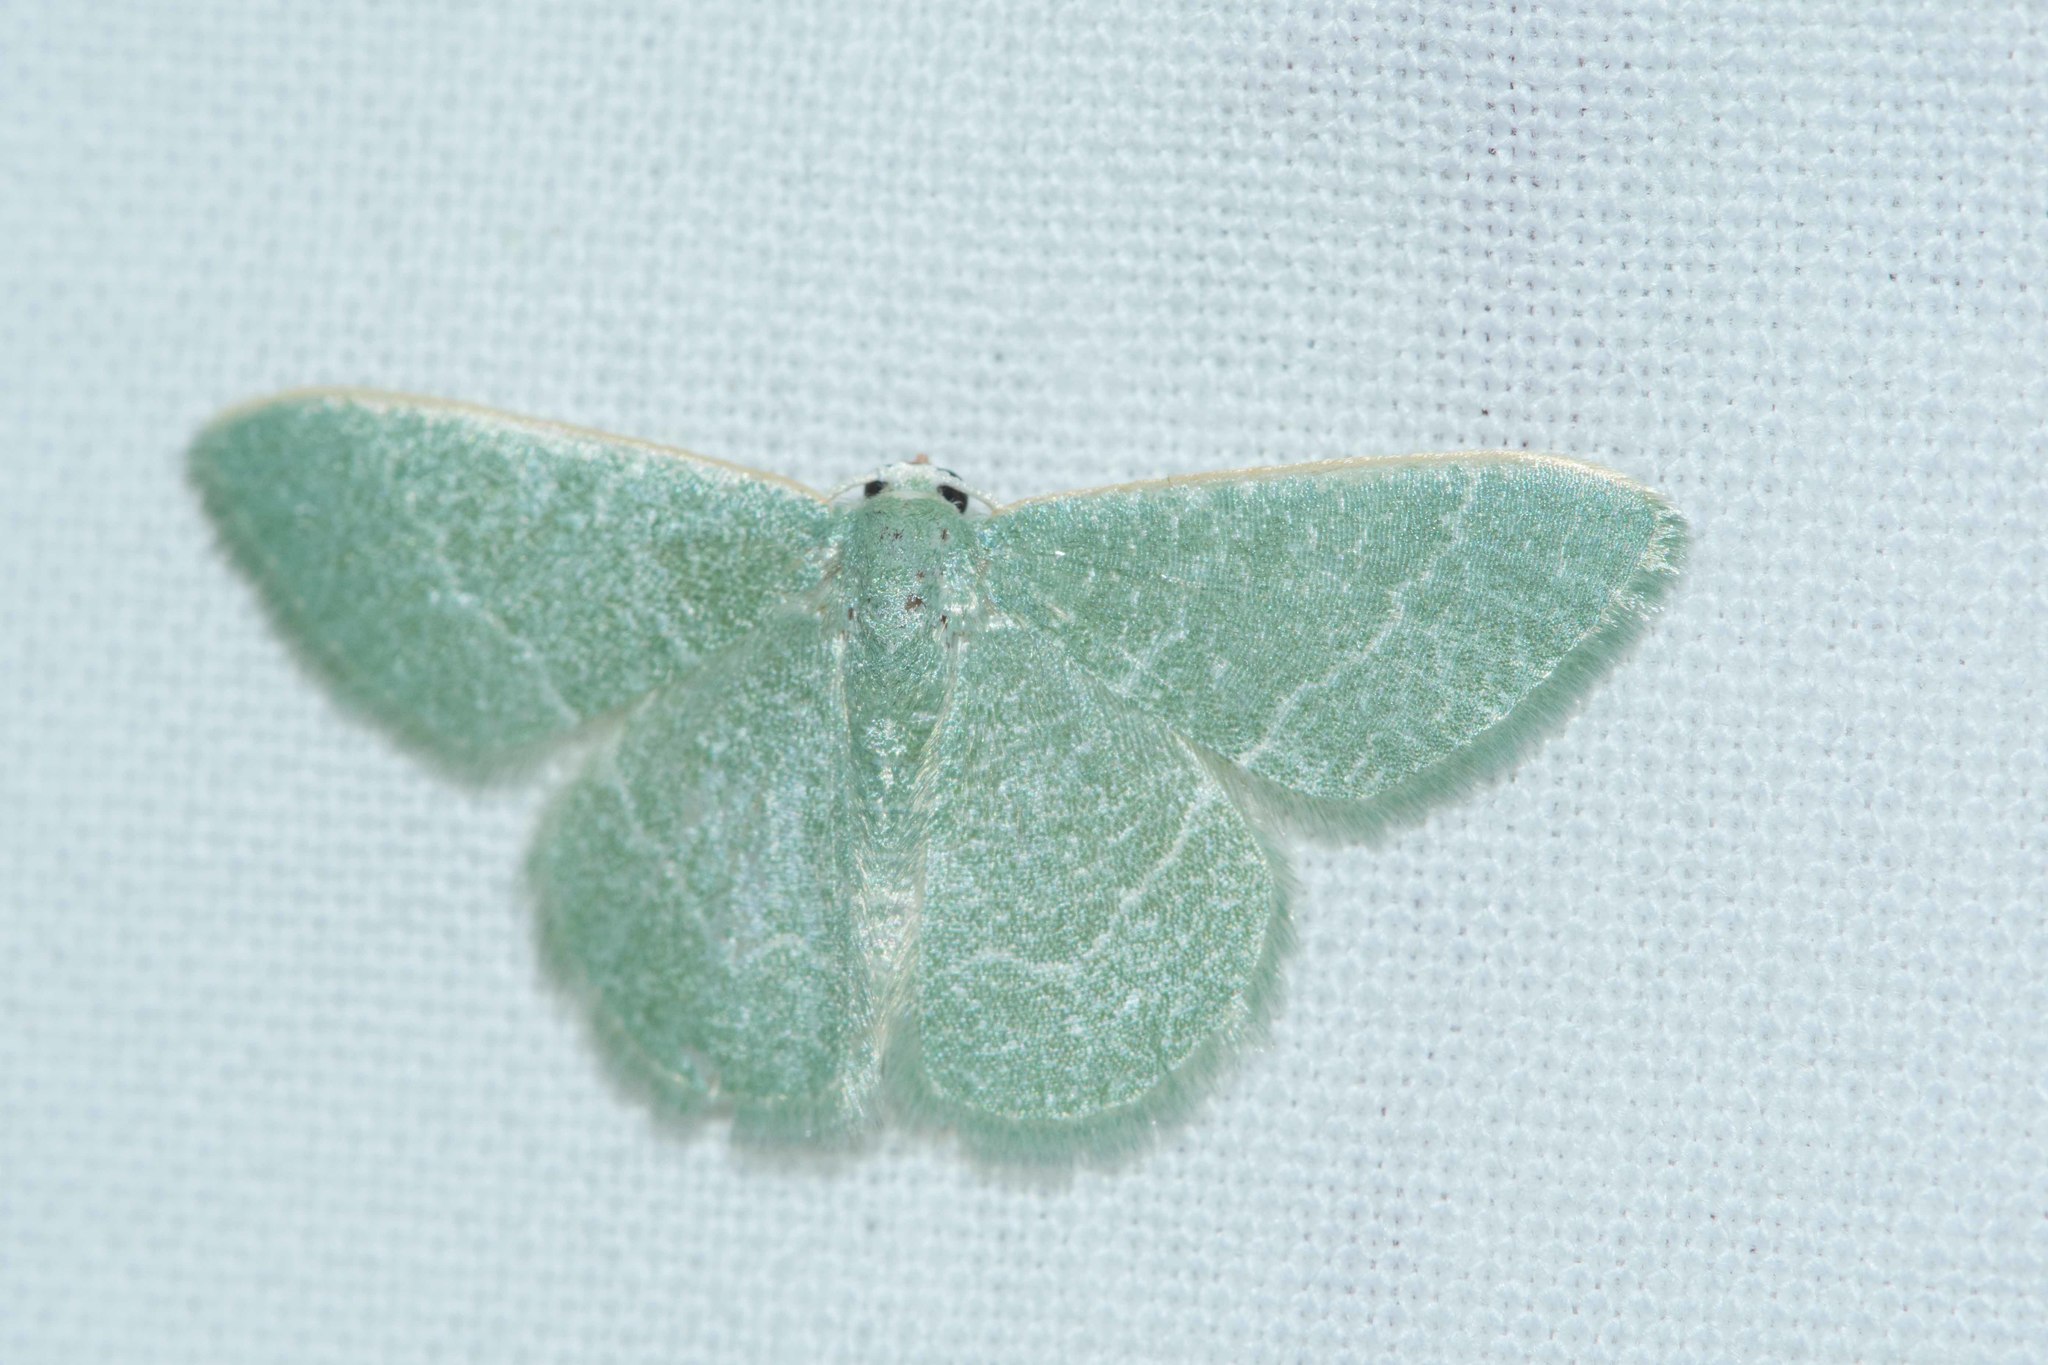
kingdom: Animalia
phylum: Arthropoda
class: Insecta
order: Lepidoptera
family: Geometridae
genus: Chlorissa
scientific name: Chlorissa etruscaria
